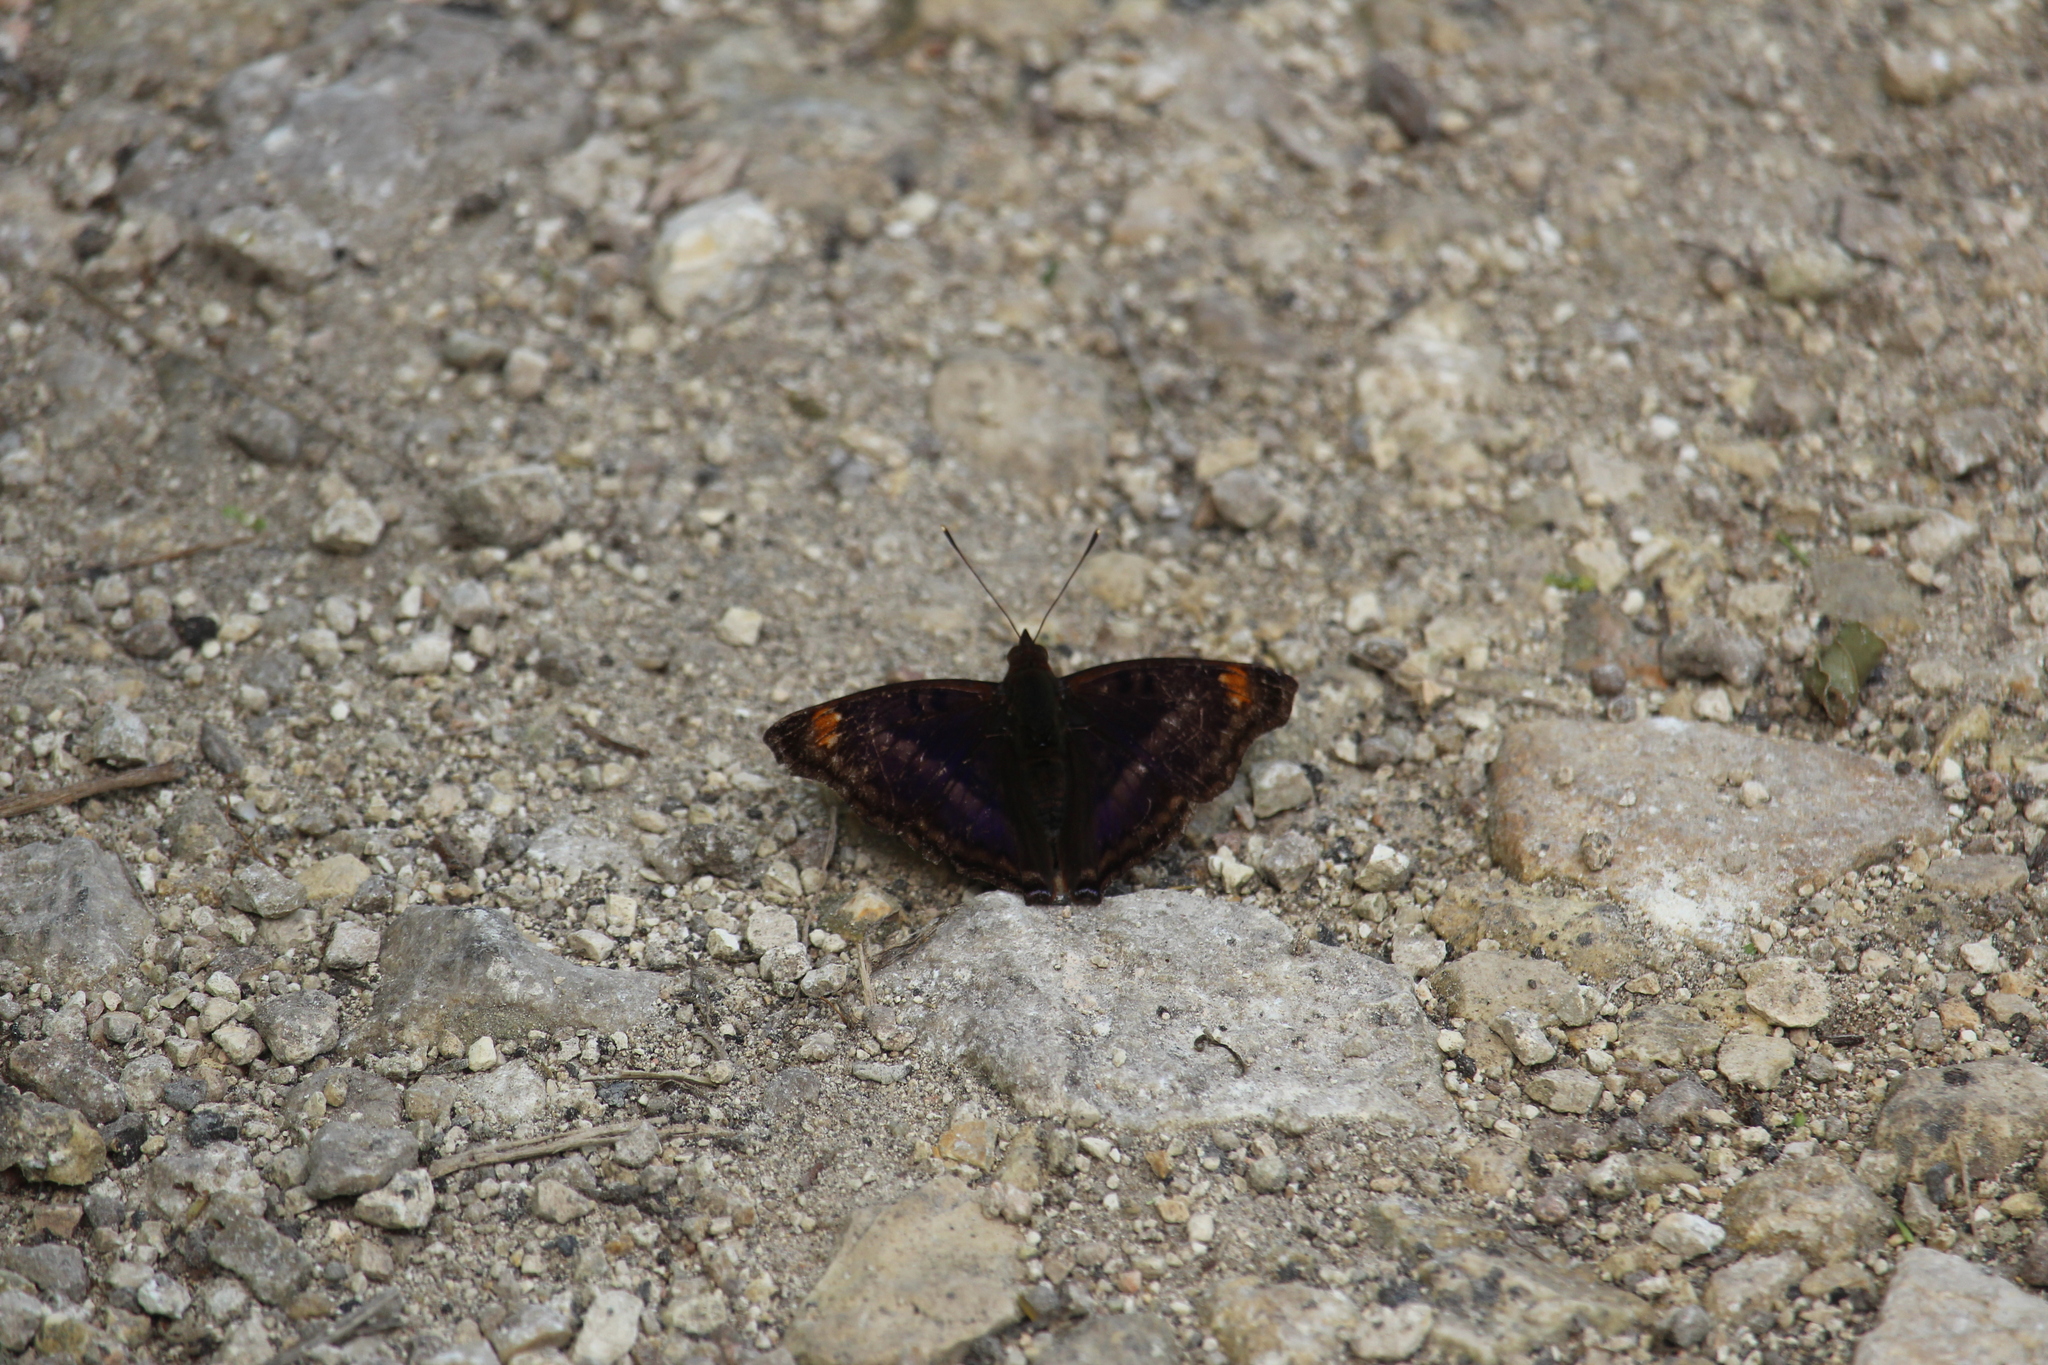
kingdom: Animalia
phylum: Arthropoda
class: Insecta
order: Lepidoptera
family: Nymphalidae
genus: Doxocopa
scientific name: Doxocopa pavon
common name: Pavon emperor
